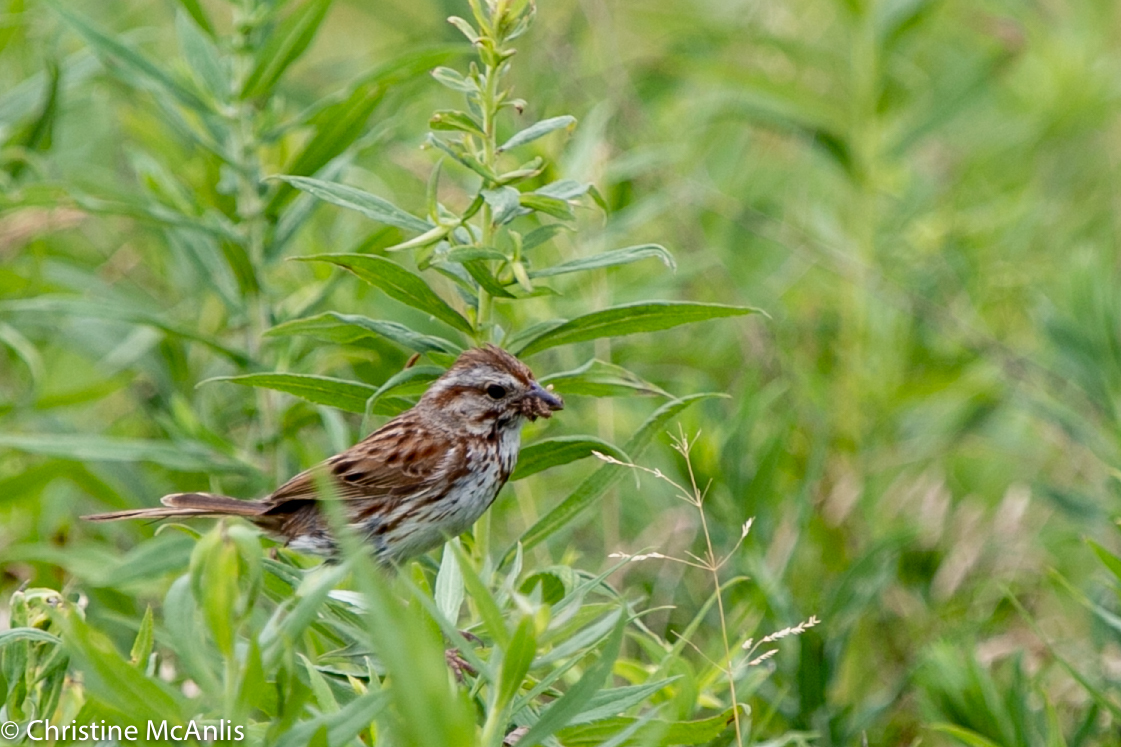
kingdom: Animalia
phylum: Chordata
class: Aves
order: Passeriformes
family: Passerellidae
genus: Melospiza
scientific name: Melospiza melodia
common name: Song sparrow
